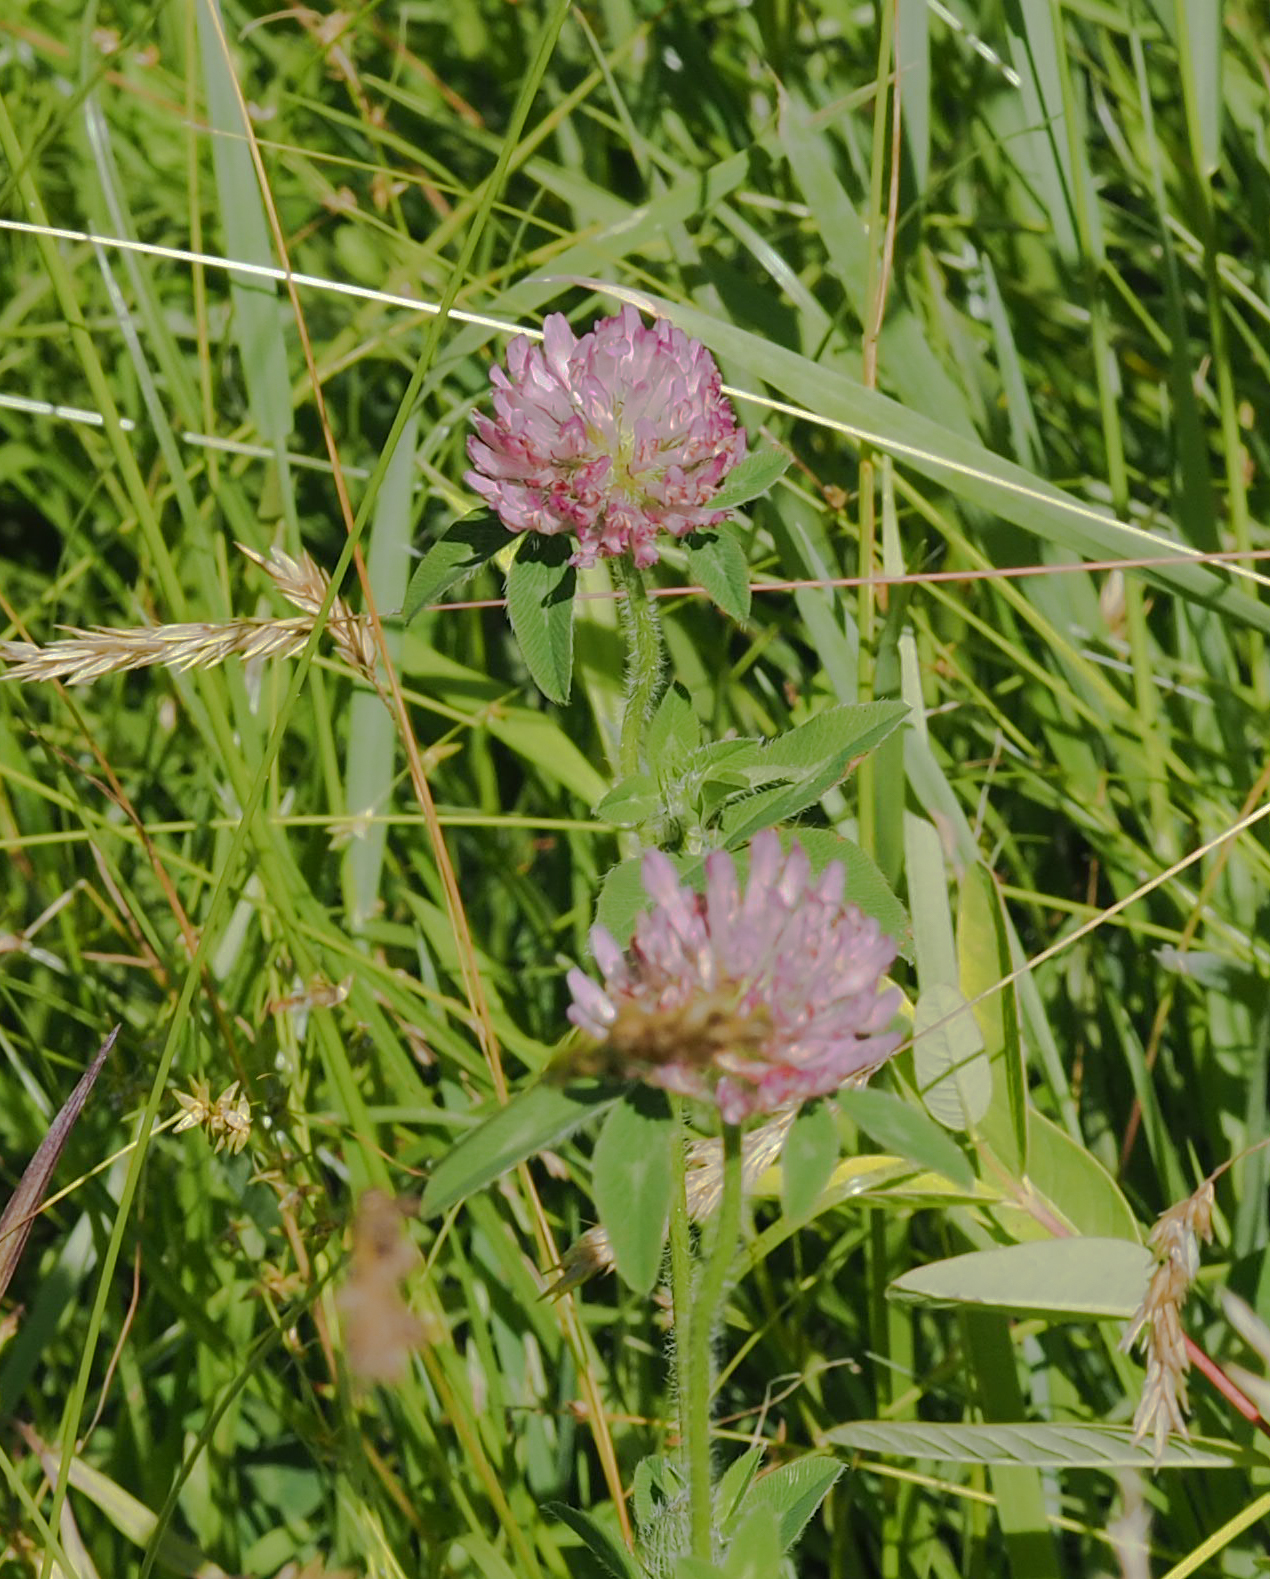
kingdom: Plantae
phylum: Tracheophyta
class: Magnoliopsida
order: Fabales
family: Fabaceae
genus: Trifolium
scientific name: Trifolium pratense
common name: Red clover
